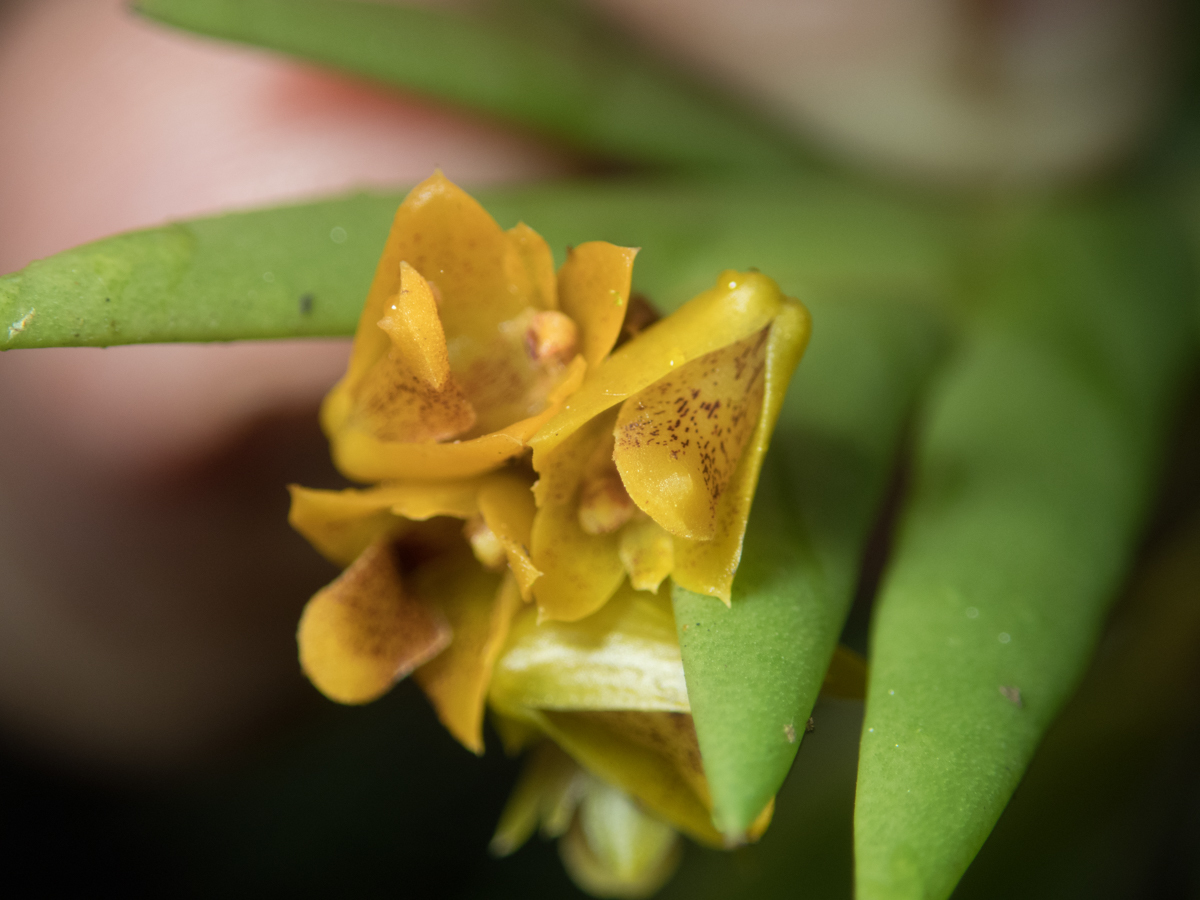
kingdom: Plantae
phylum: Tracheophyta
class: Liliopsida
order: Asparagales
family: Orchidaceae
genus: Oxystophyllum
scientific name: Oxystophyllum carnosum
